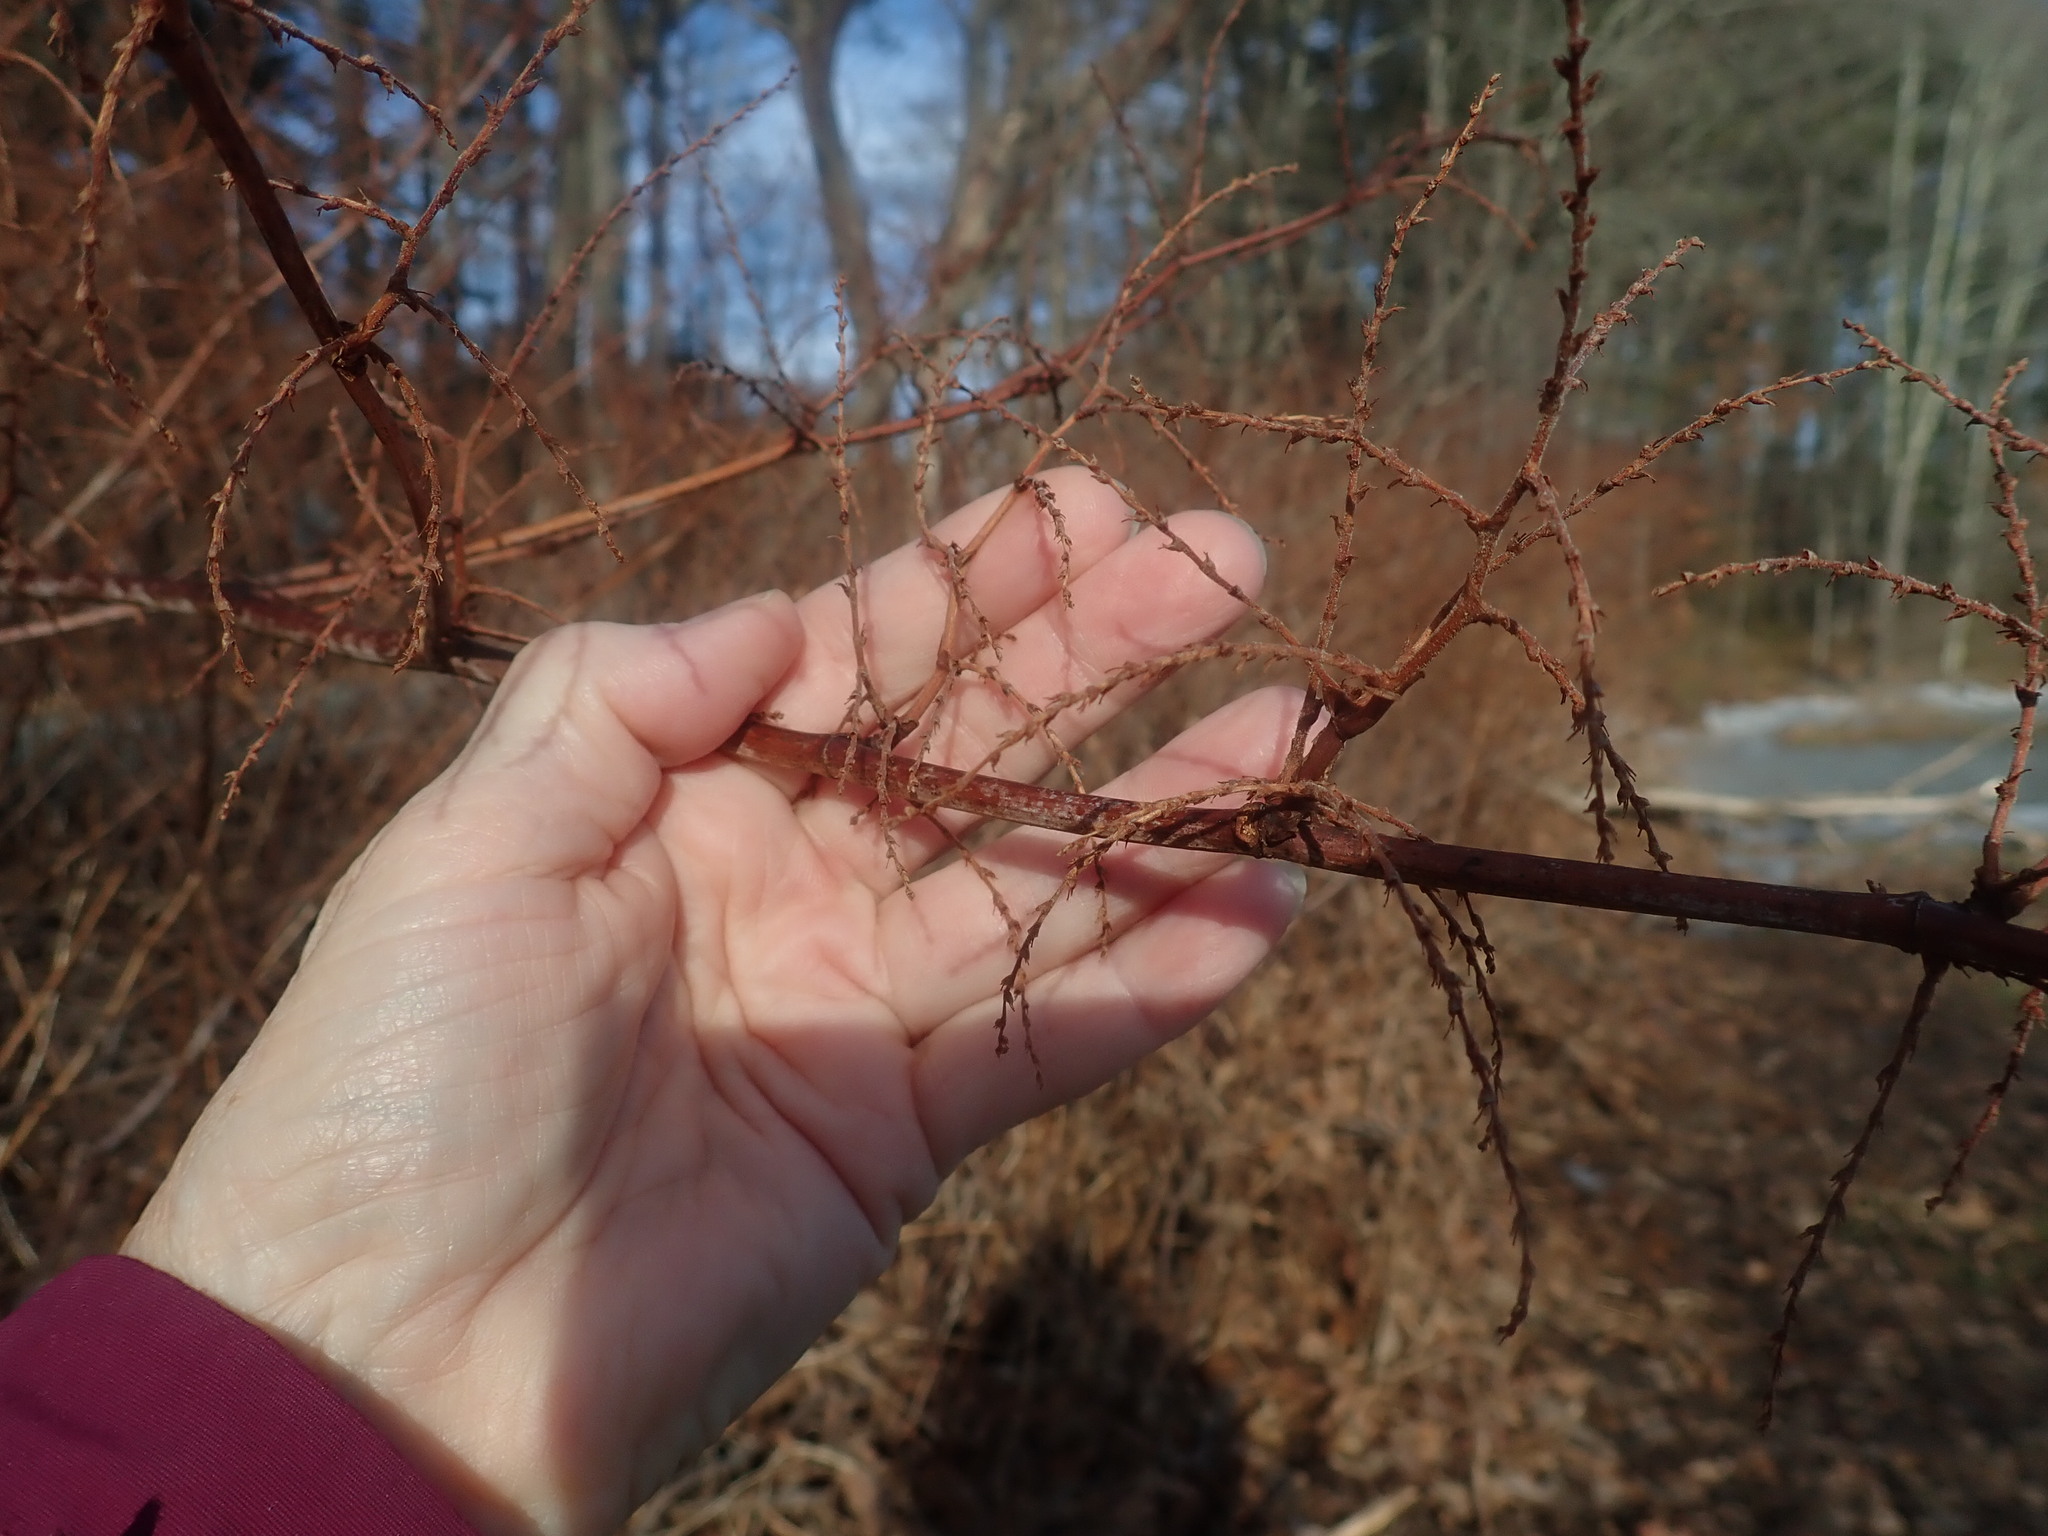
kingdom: Plantae
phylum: Tracheophyta
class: Magnoliopsida
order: Caryophyllales
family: Polygonaceae
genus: Reynoutria
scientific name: Reynoutria
